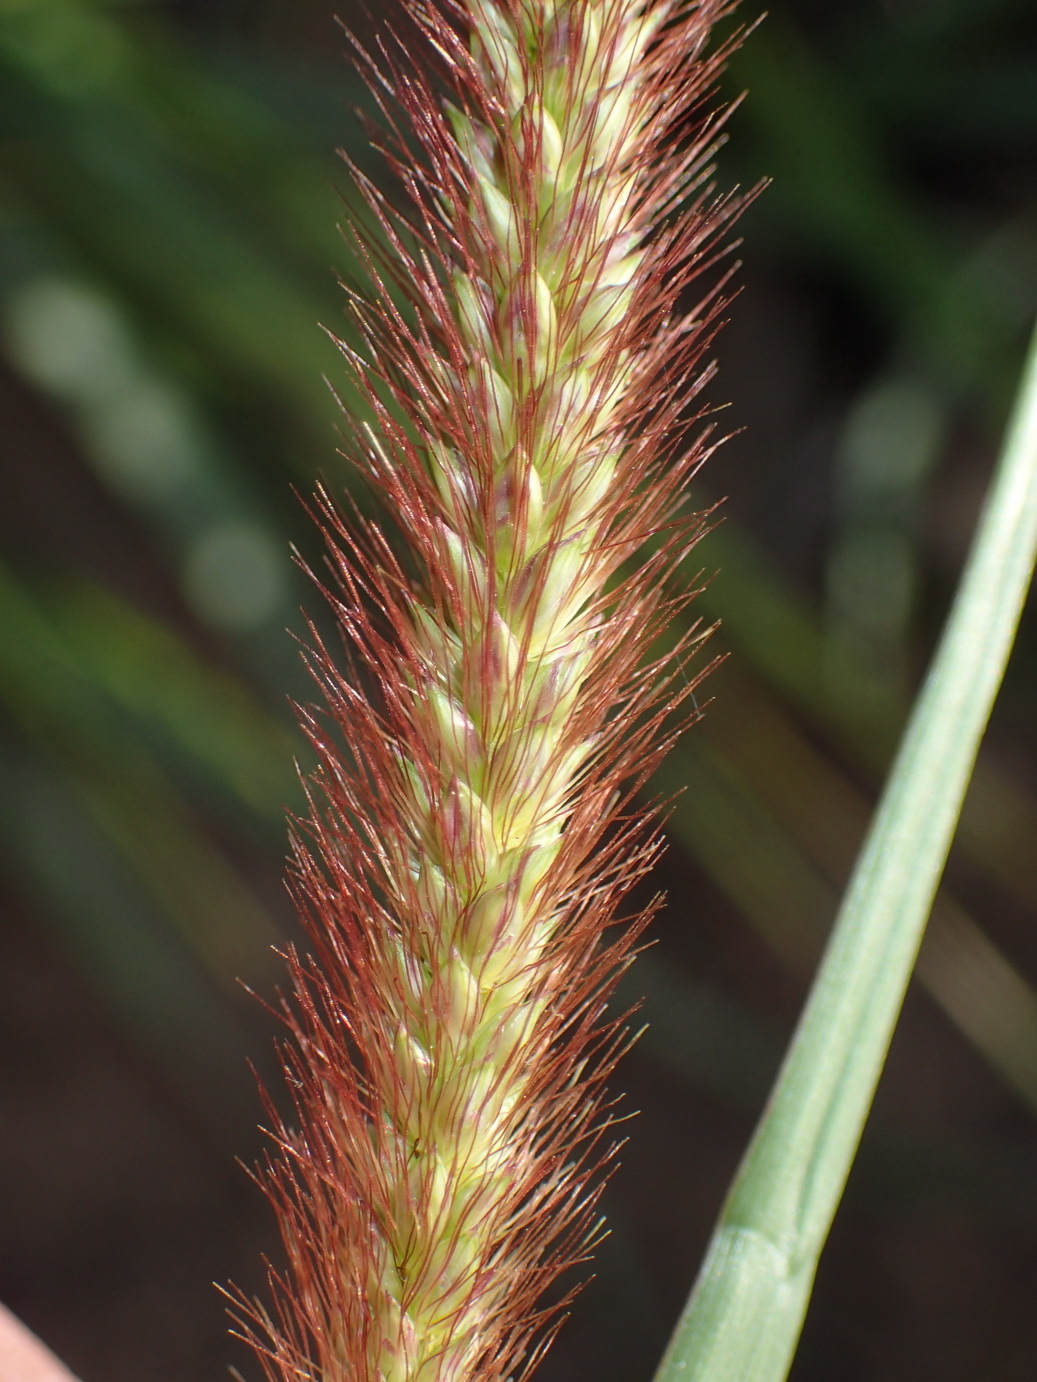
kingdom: Plantae
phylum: Tracheophyta
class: Liliopsida
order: Poales
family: Poaceae
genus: Cenchrus
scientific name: Cenchrus ciliaris
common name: Buffelgrass
